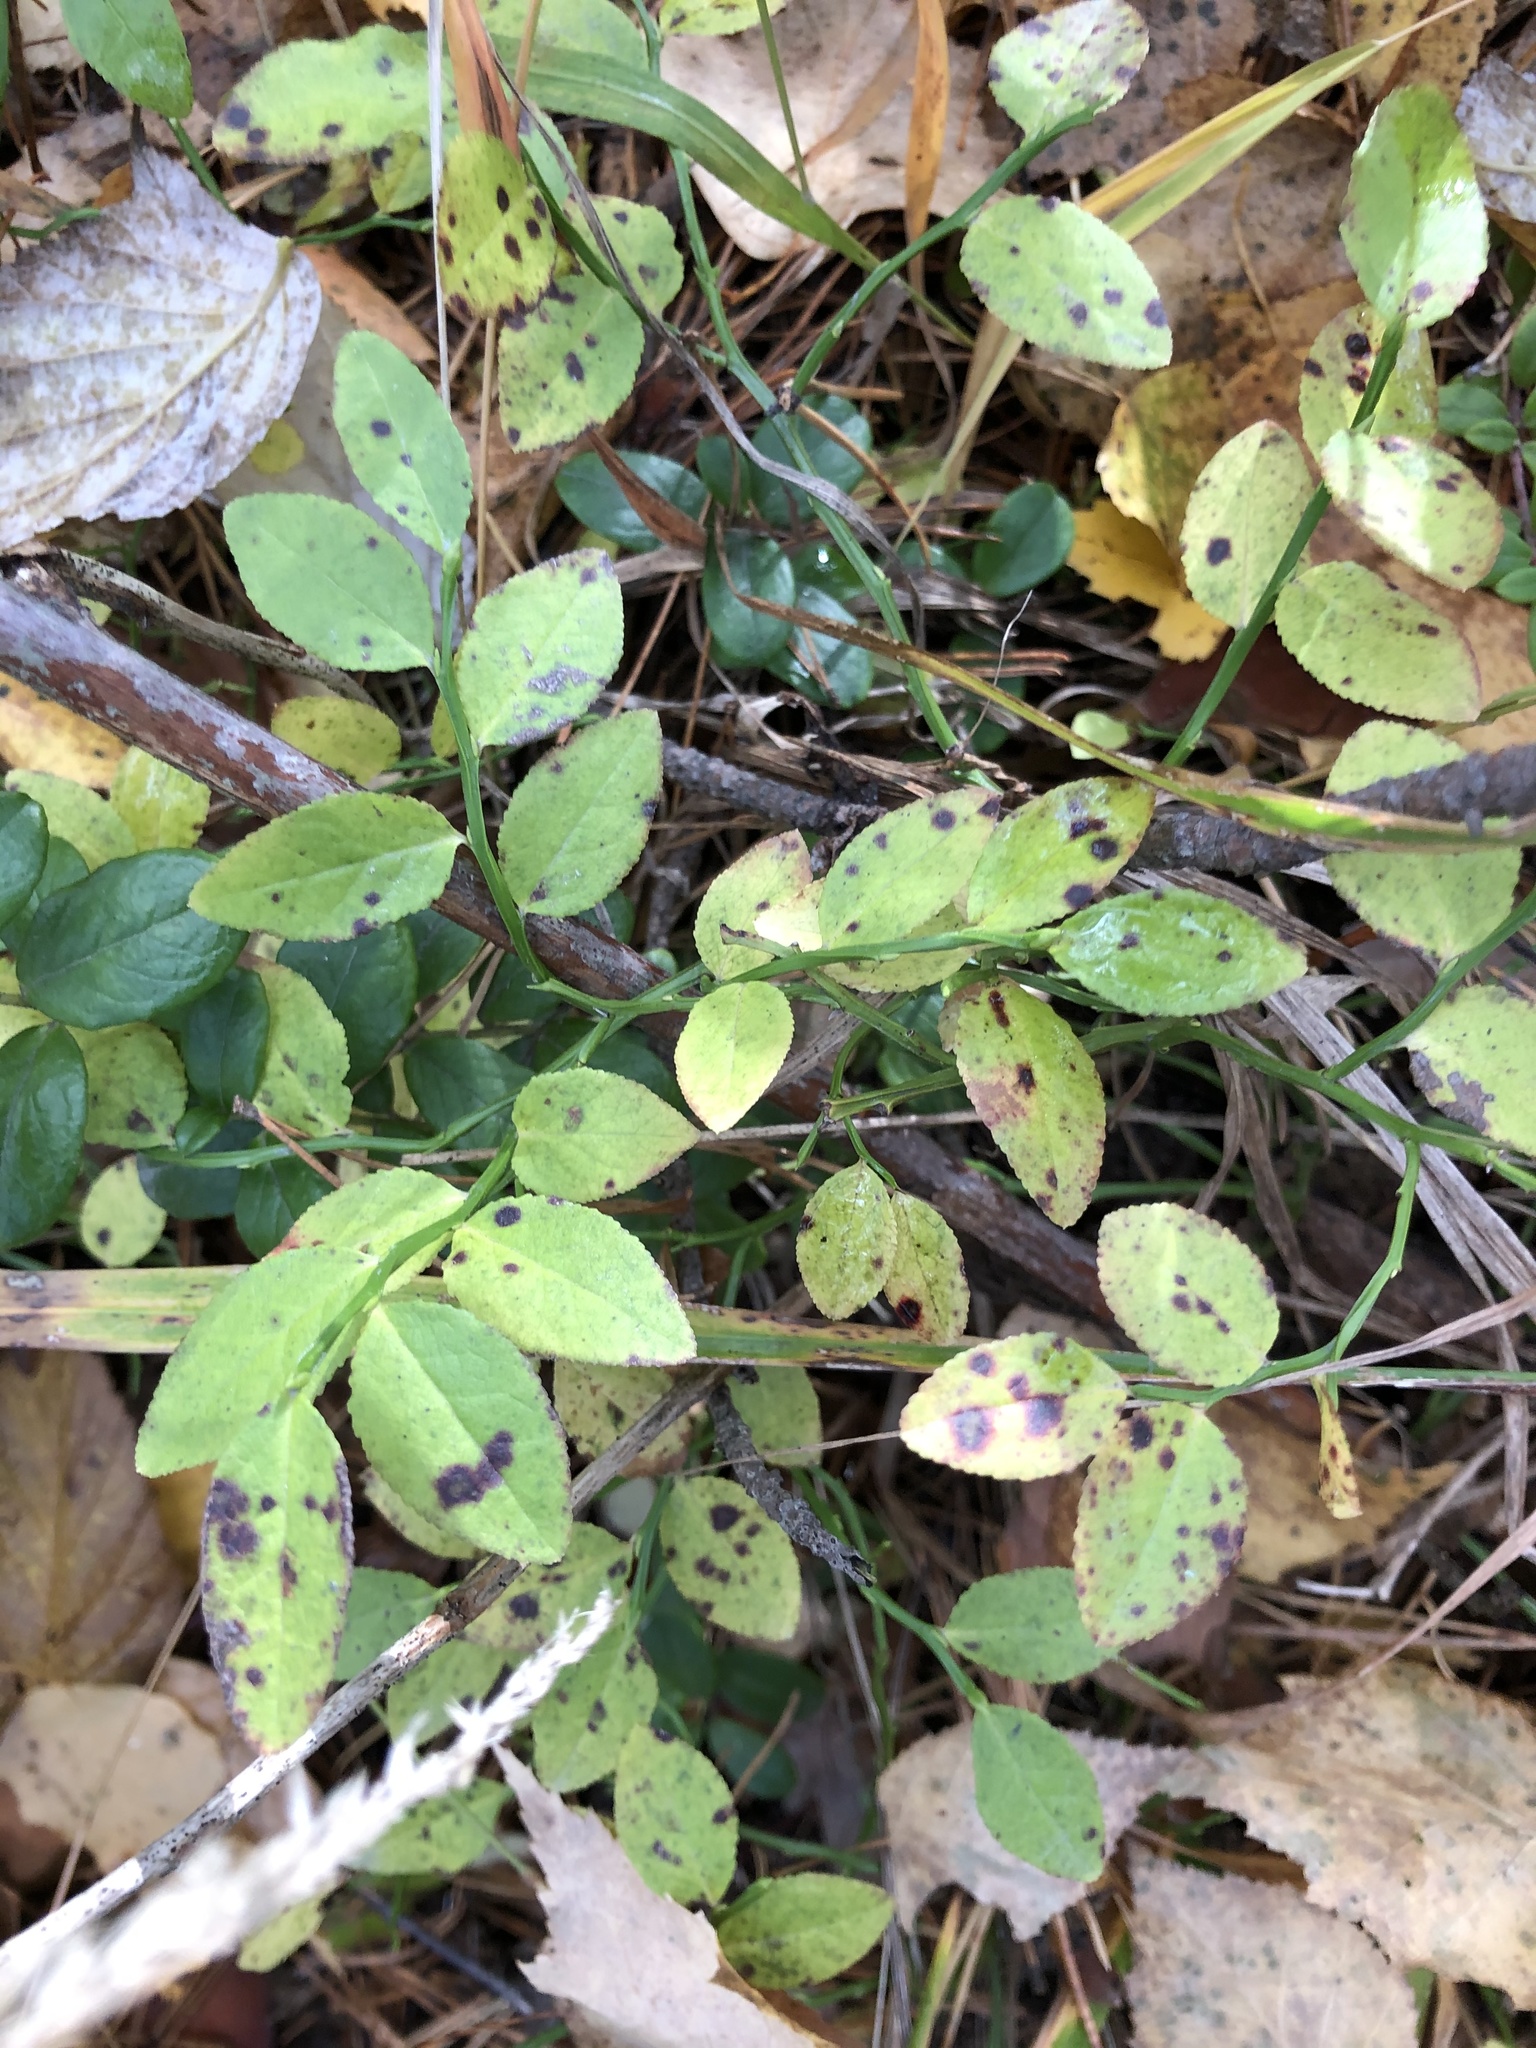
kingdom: Plantae
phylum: Tracheophyta
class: Magnoliopsida
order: Ericales
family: Ericaceae
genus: Vaccinium
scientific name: Vaccinium myrtillus
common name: Bilberry
